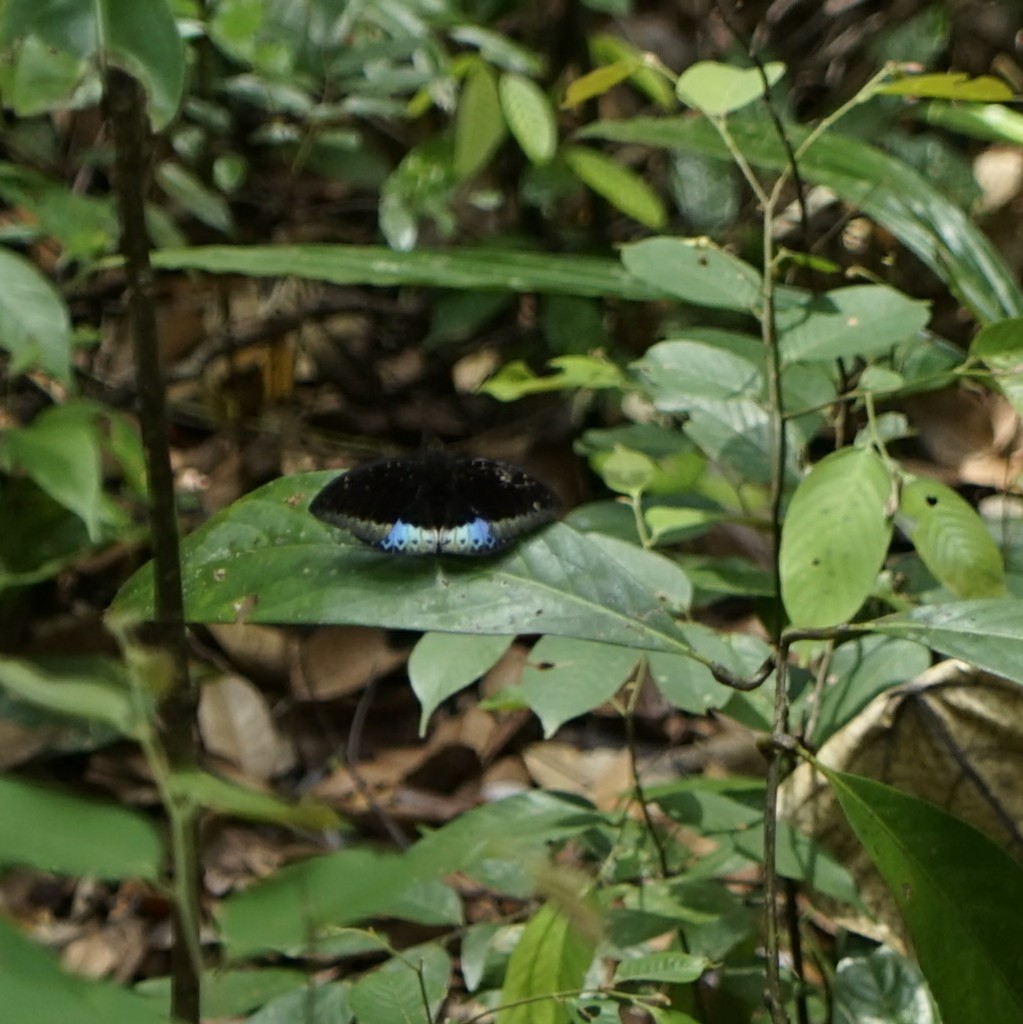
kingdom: Animalia
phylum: Arthropoda
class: Insecta
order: Lepidoptera
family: Nymphalidae
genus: Lexias
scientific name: Lexias dirtea
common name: Black-tipped archduke
